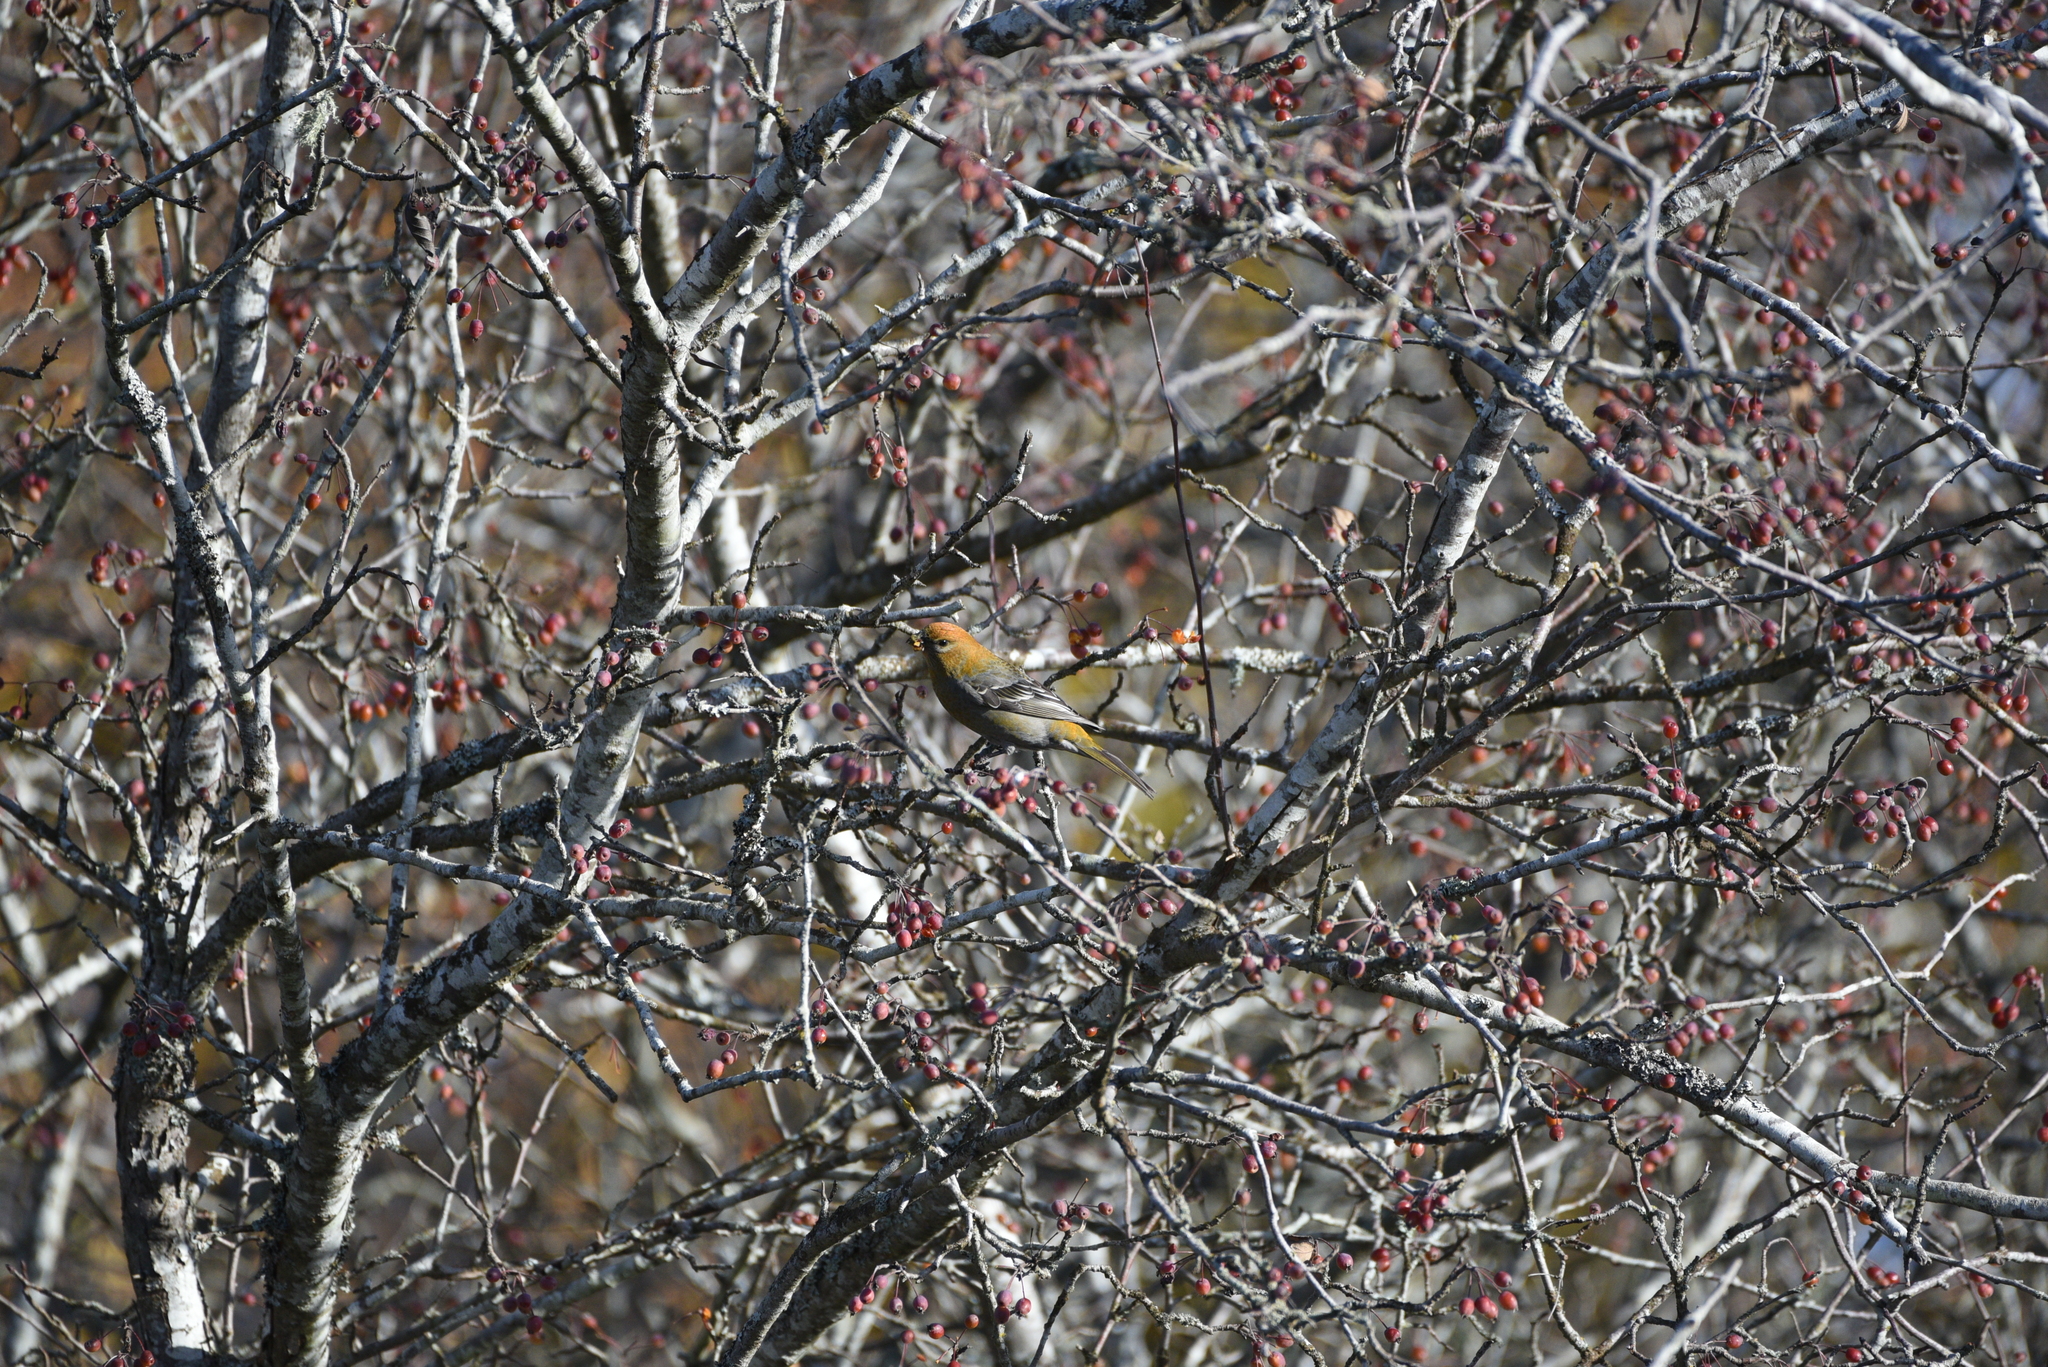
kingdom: Animalia
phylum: Chordata
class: Aves
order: Passeriformes
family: Fringillidae
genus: Pinicola
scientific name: Pinicola enucleator
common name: Pine grosbeak
